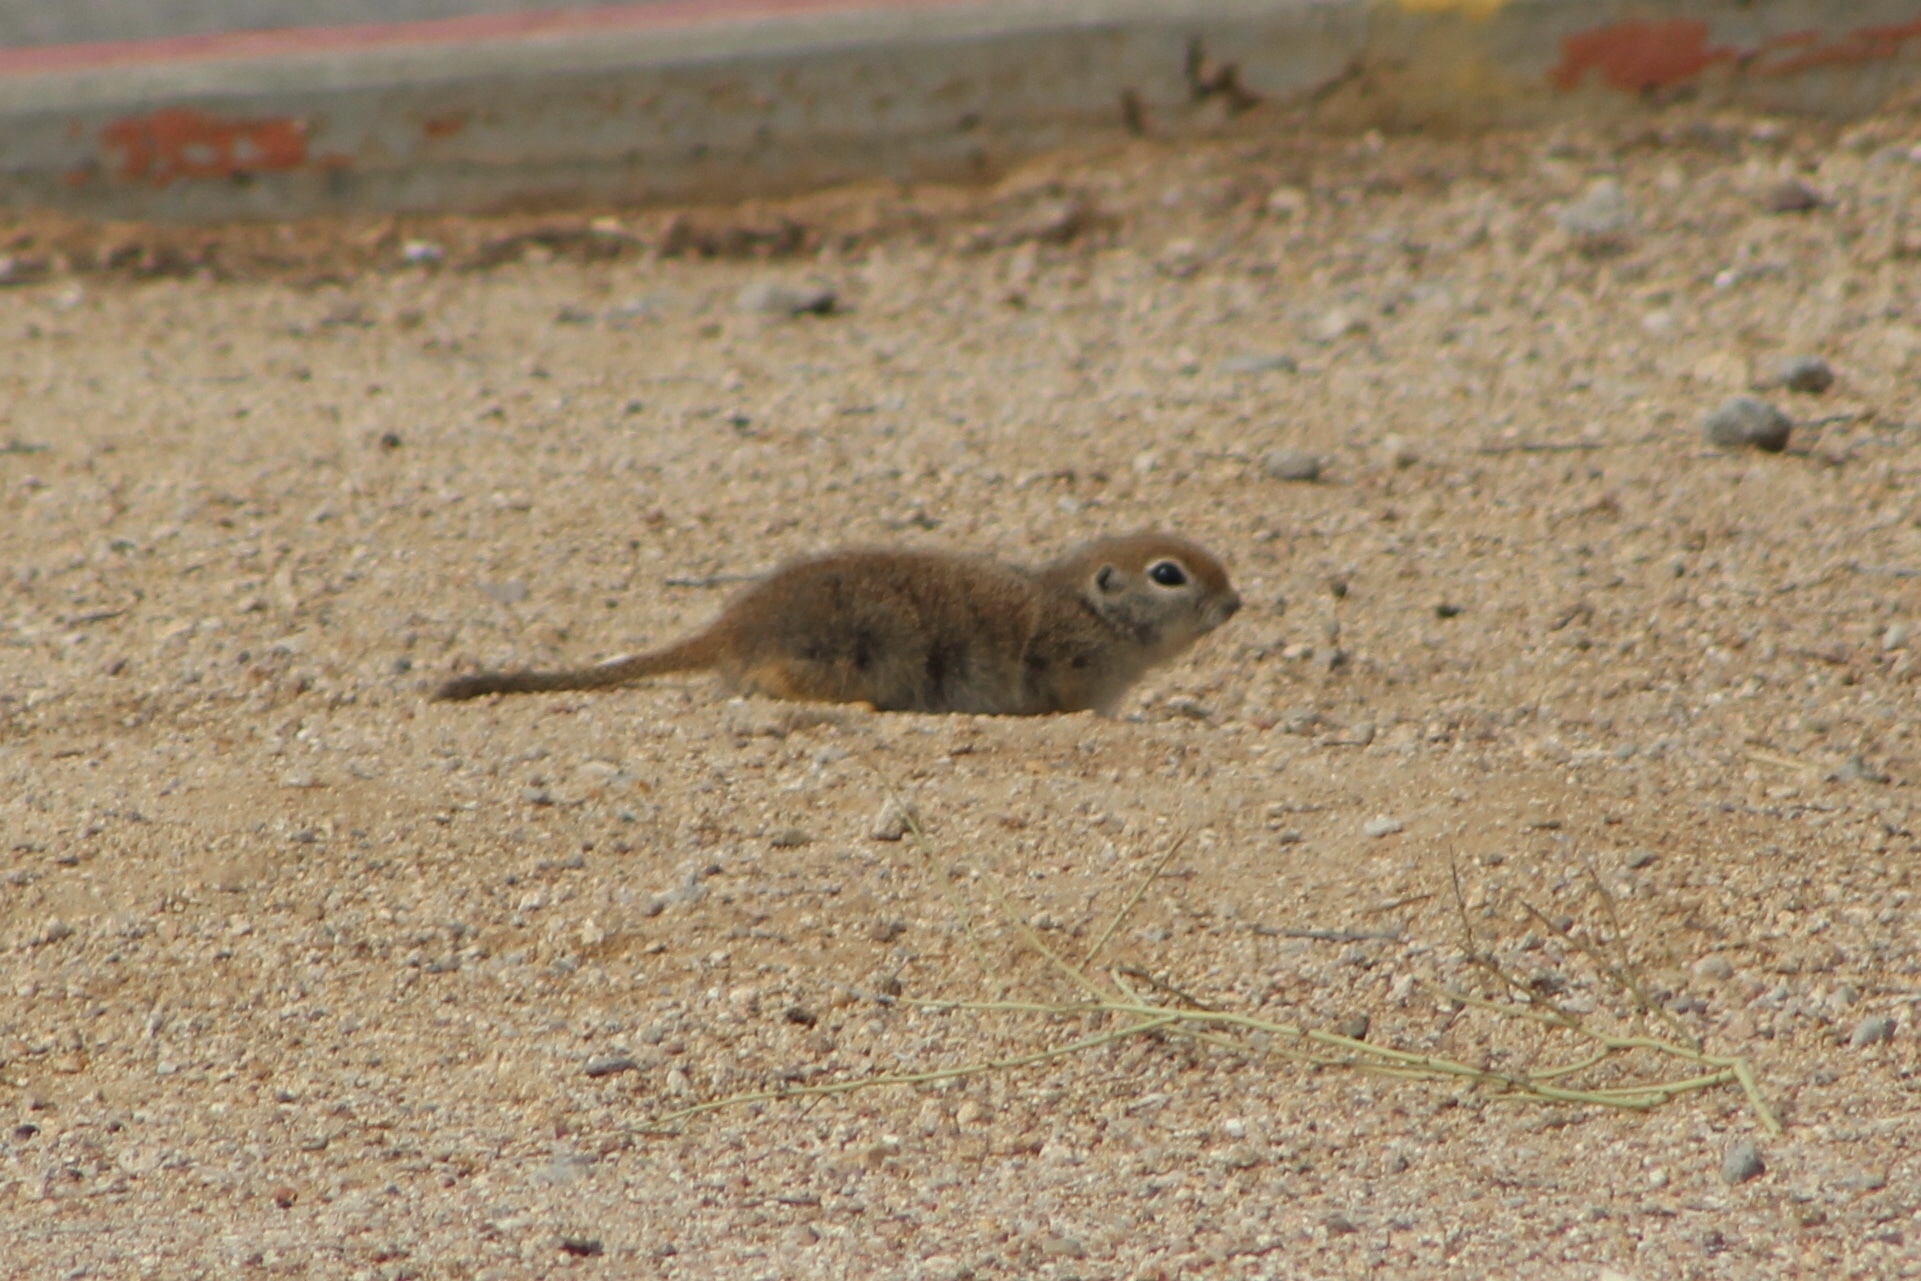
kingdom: Animalia
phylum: Chordata
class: Mammalia
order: Rodentia
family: Sciuridae
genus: Xerospermophilus
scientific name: Xerospermophilus tereticaudus
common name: Round-tailed ground squirrel
